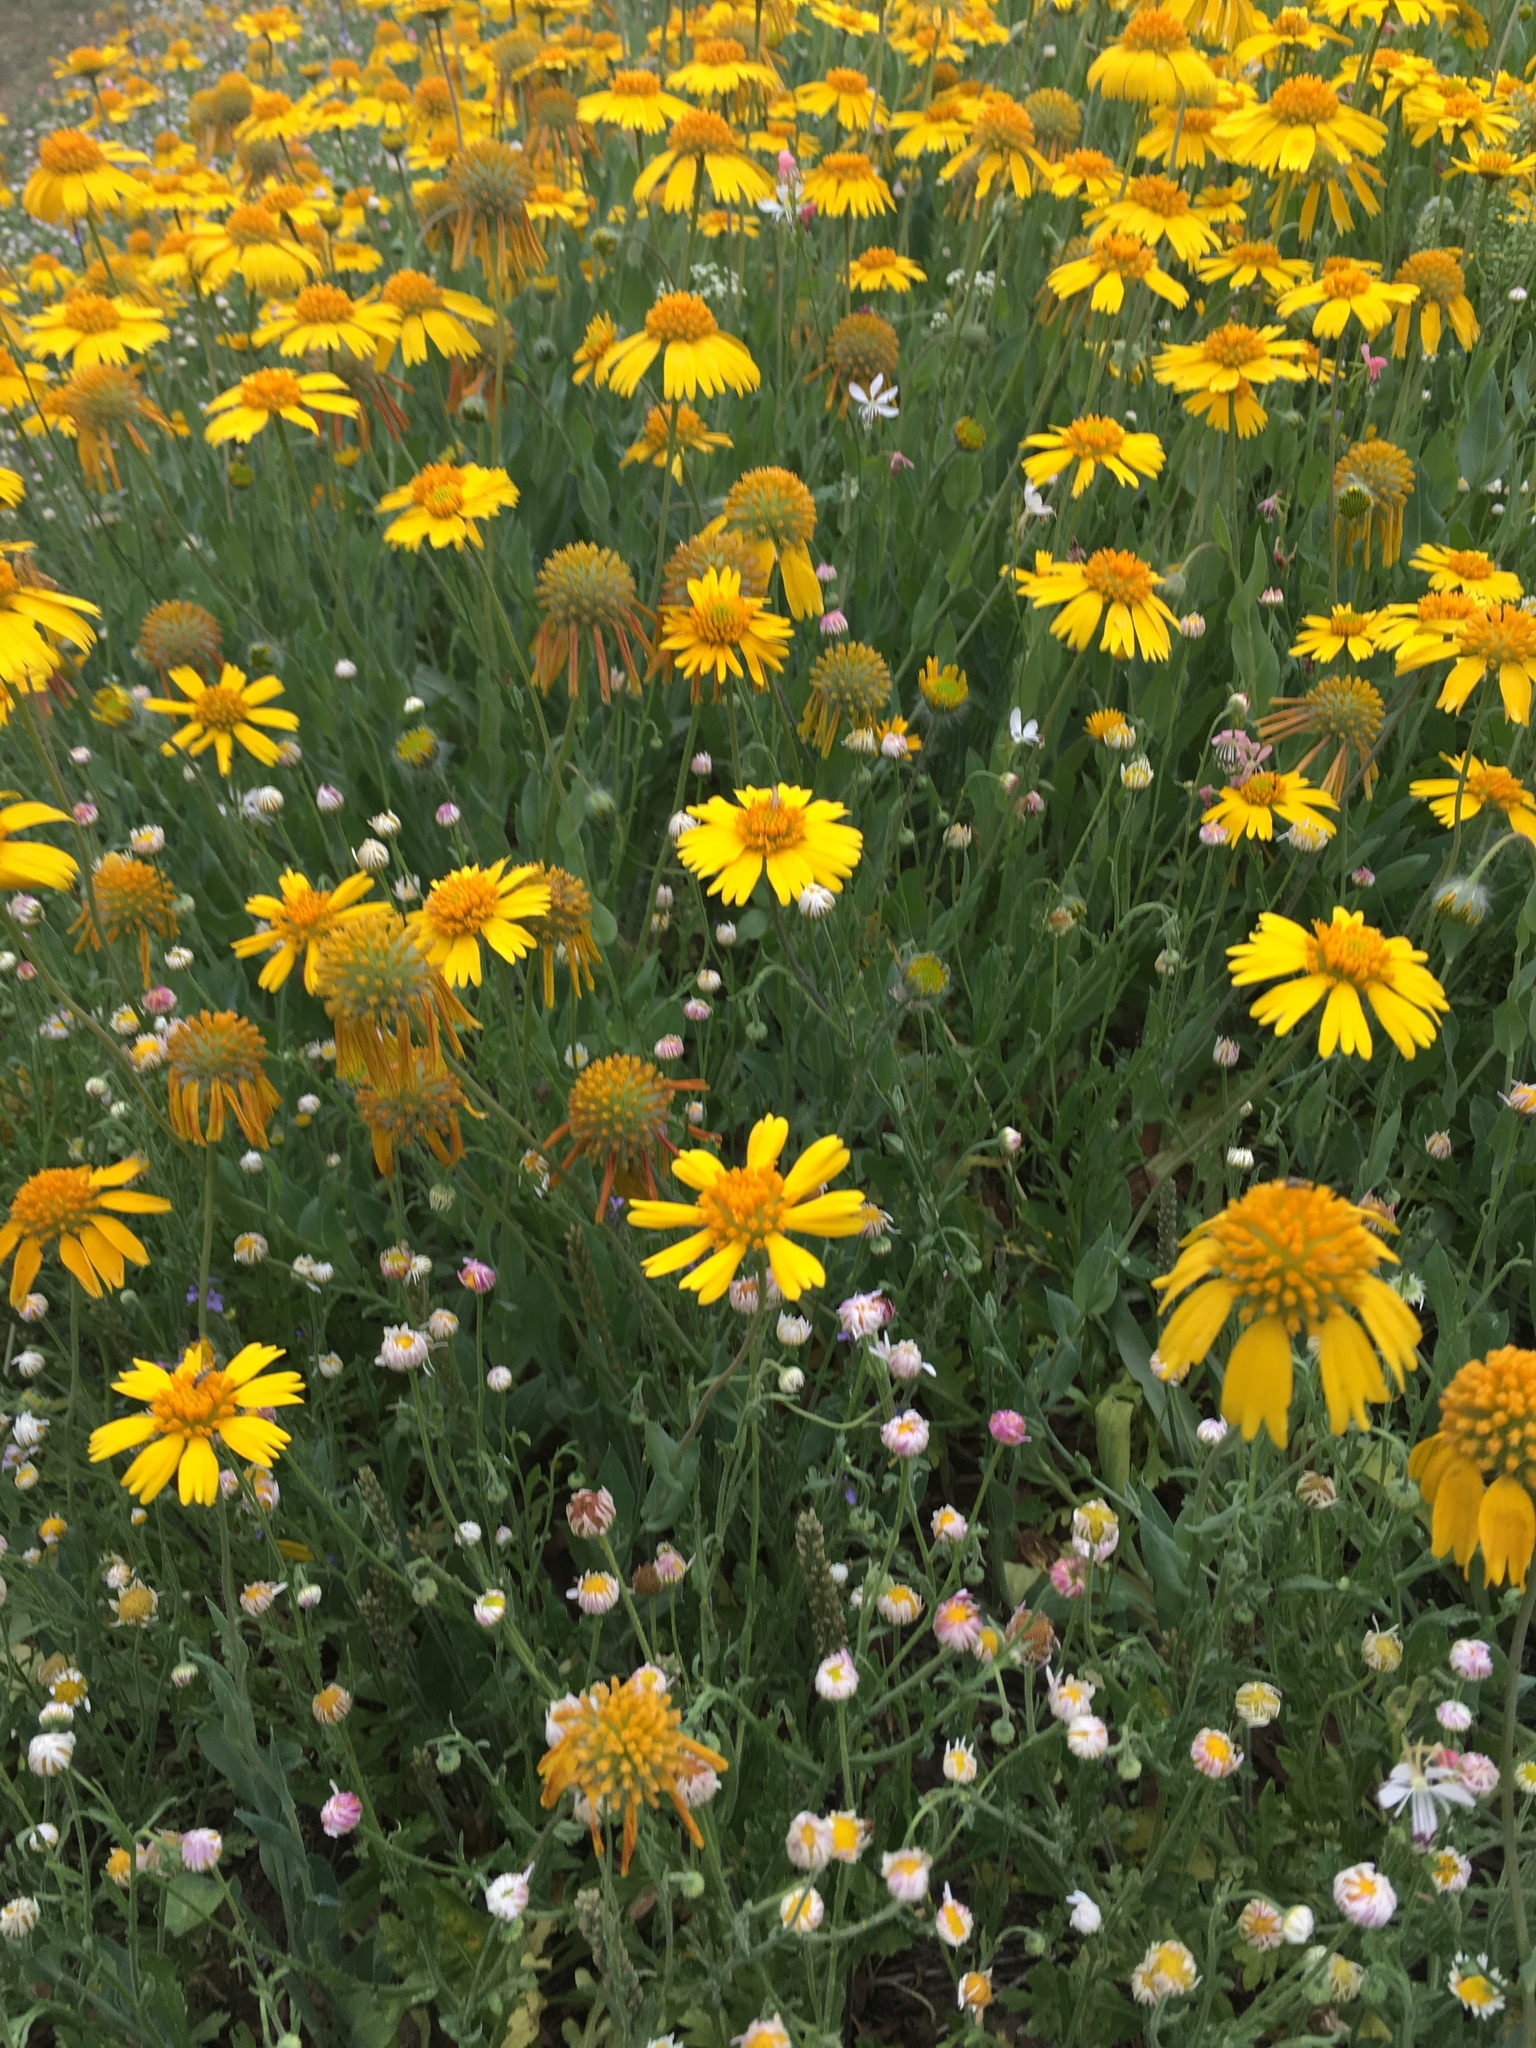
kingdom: Plantae
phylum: Tracheophyta
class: Magnoliopsida
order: Asterales
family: Asteraceae
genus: Amblyolepis
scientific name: Amblyolepis setigera
